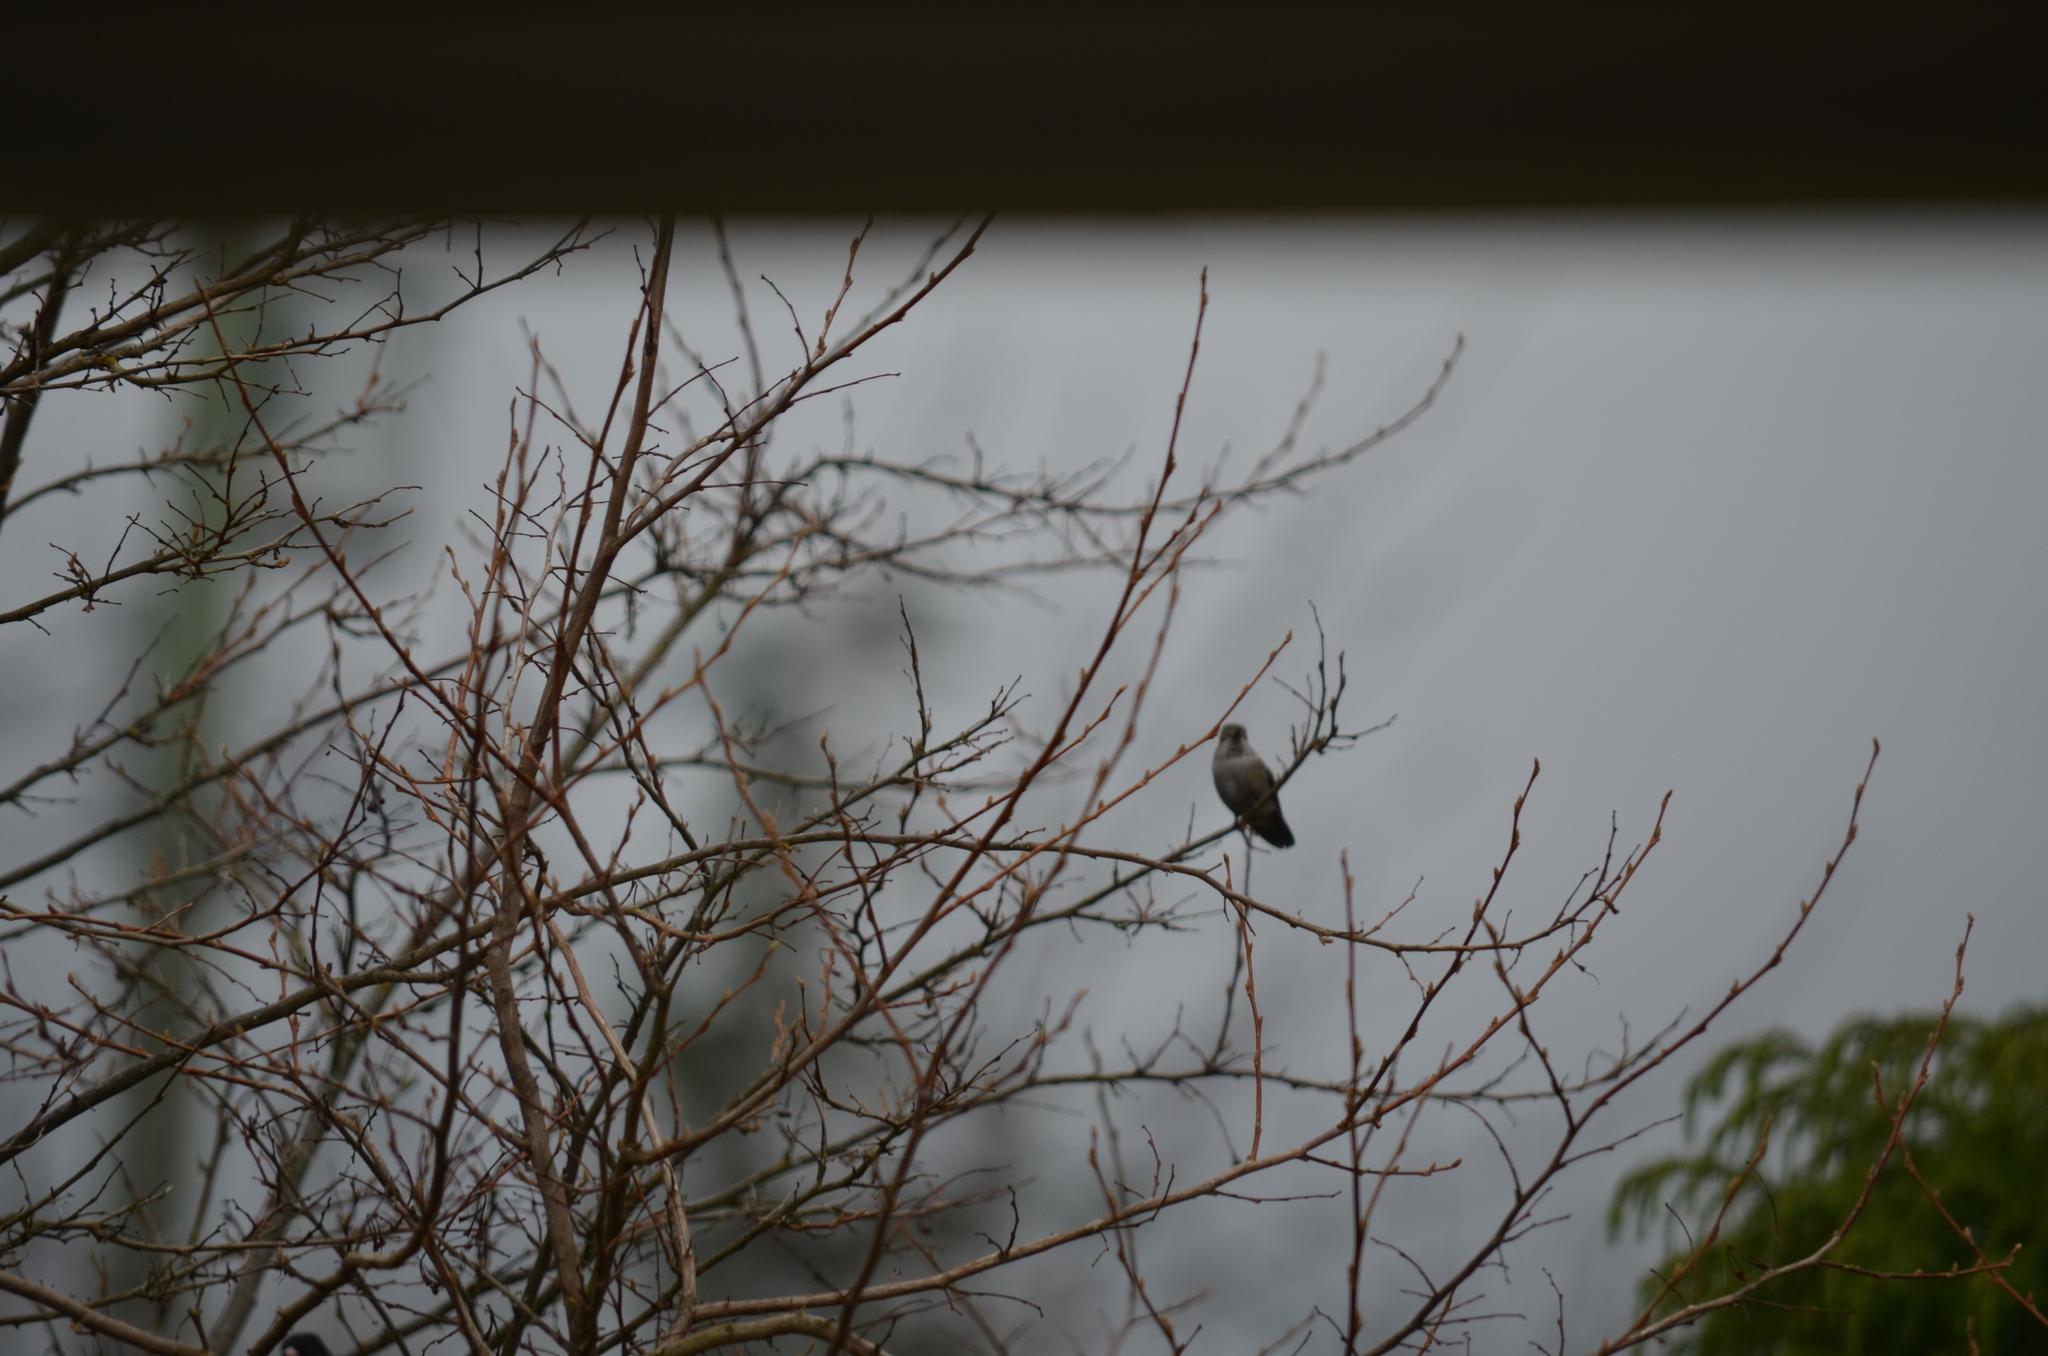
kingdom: Animalia
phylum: Chordata
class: Aves
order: Apodiformes
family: Trochilidae
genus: Calypte
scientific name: Calypte anna
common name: Anna's hummingbird
